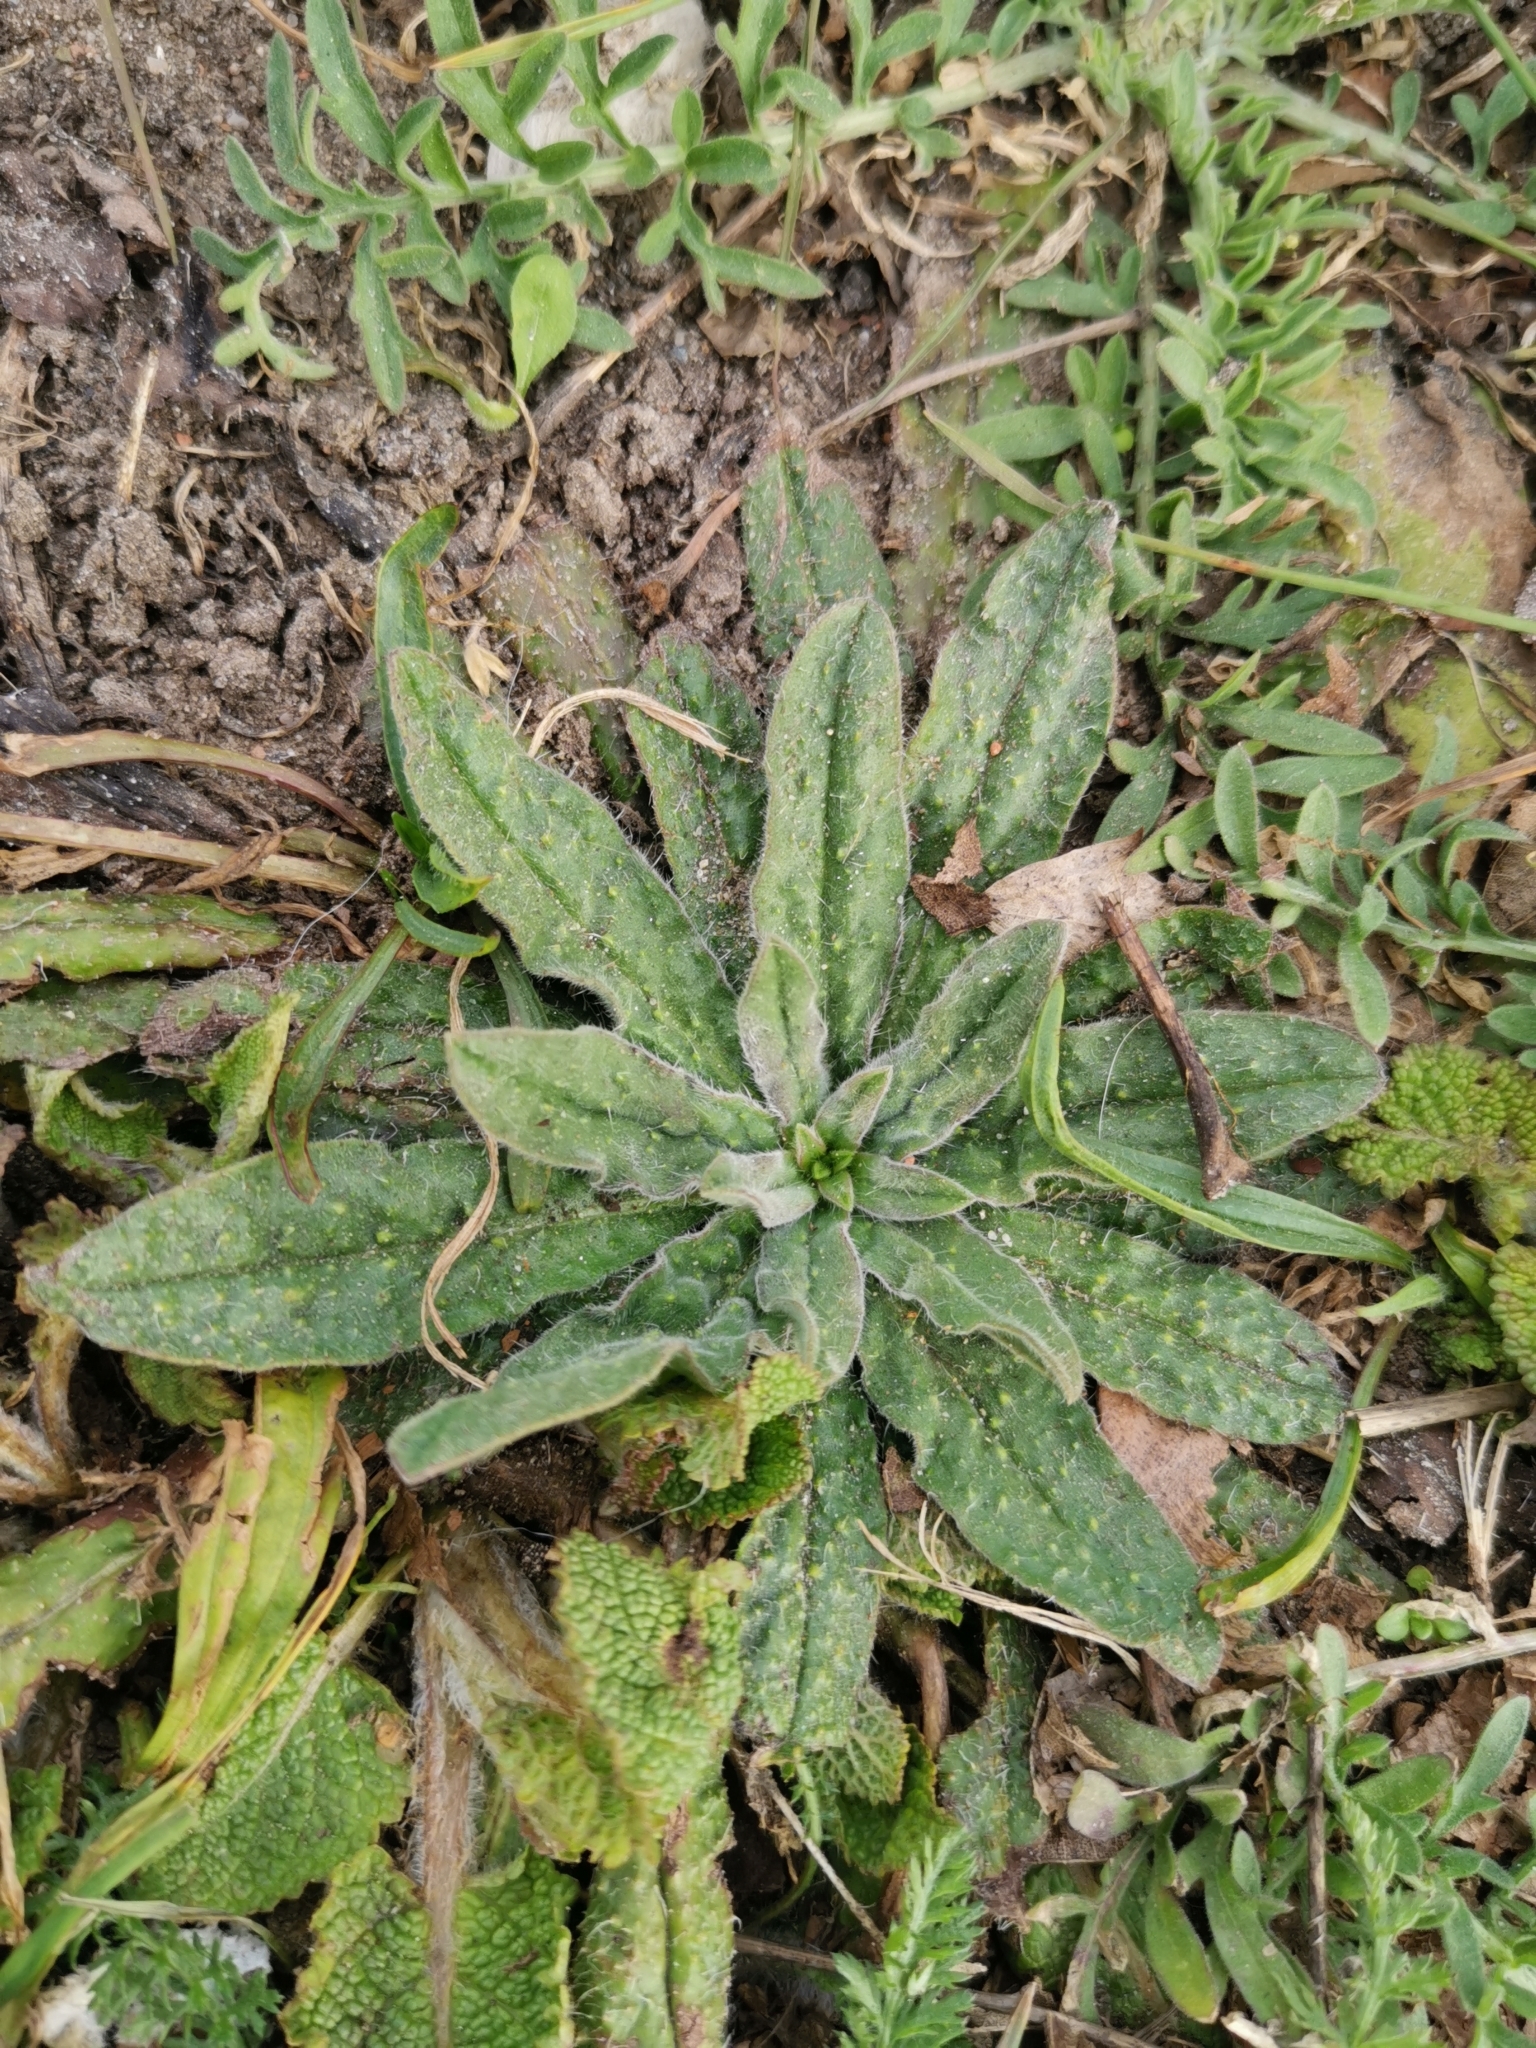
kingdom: Plantae
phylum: Tracheophyta
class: Magnoliopsida
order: Boraginales
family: Boraginaceae
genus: Echium
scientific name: Echium vulgare
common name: Common viper's bugloss
